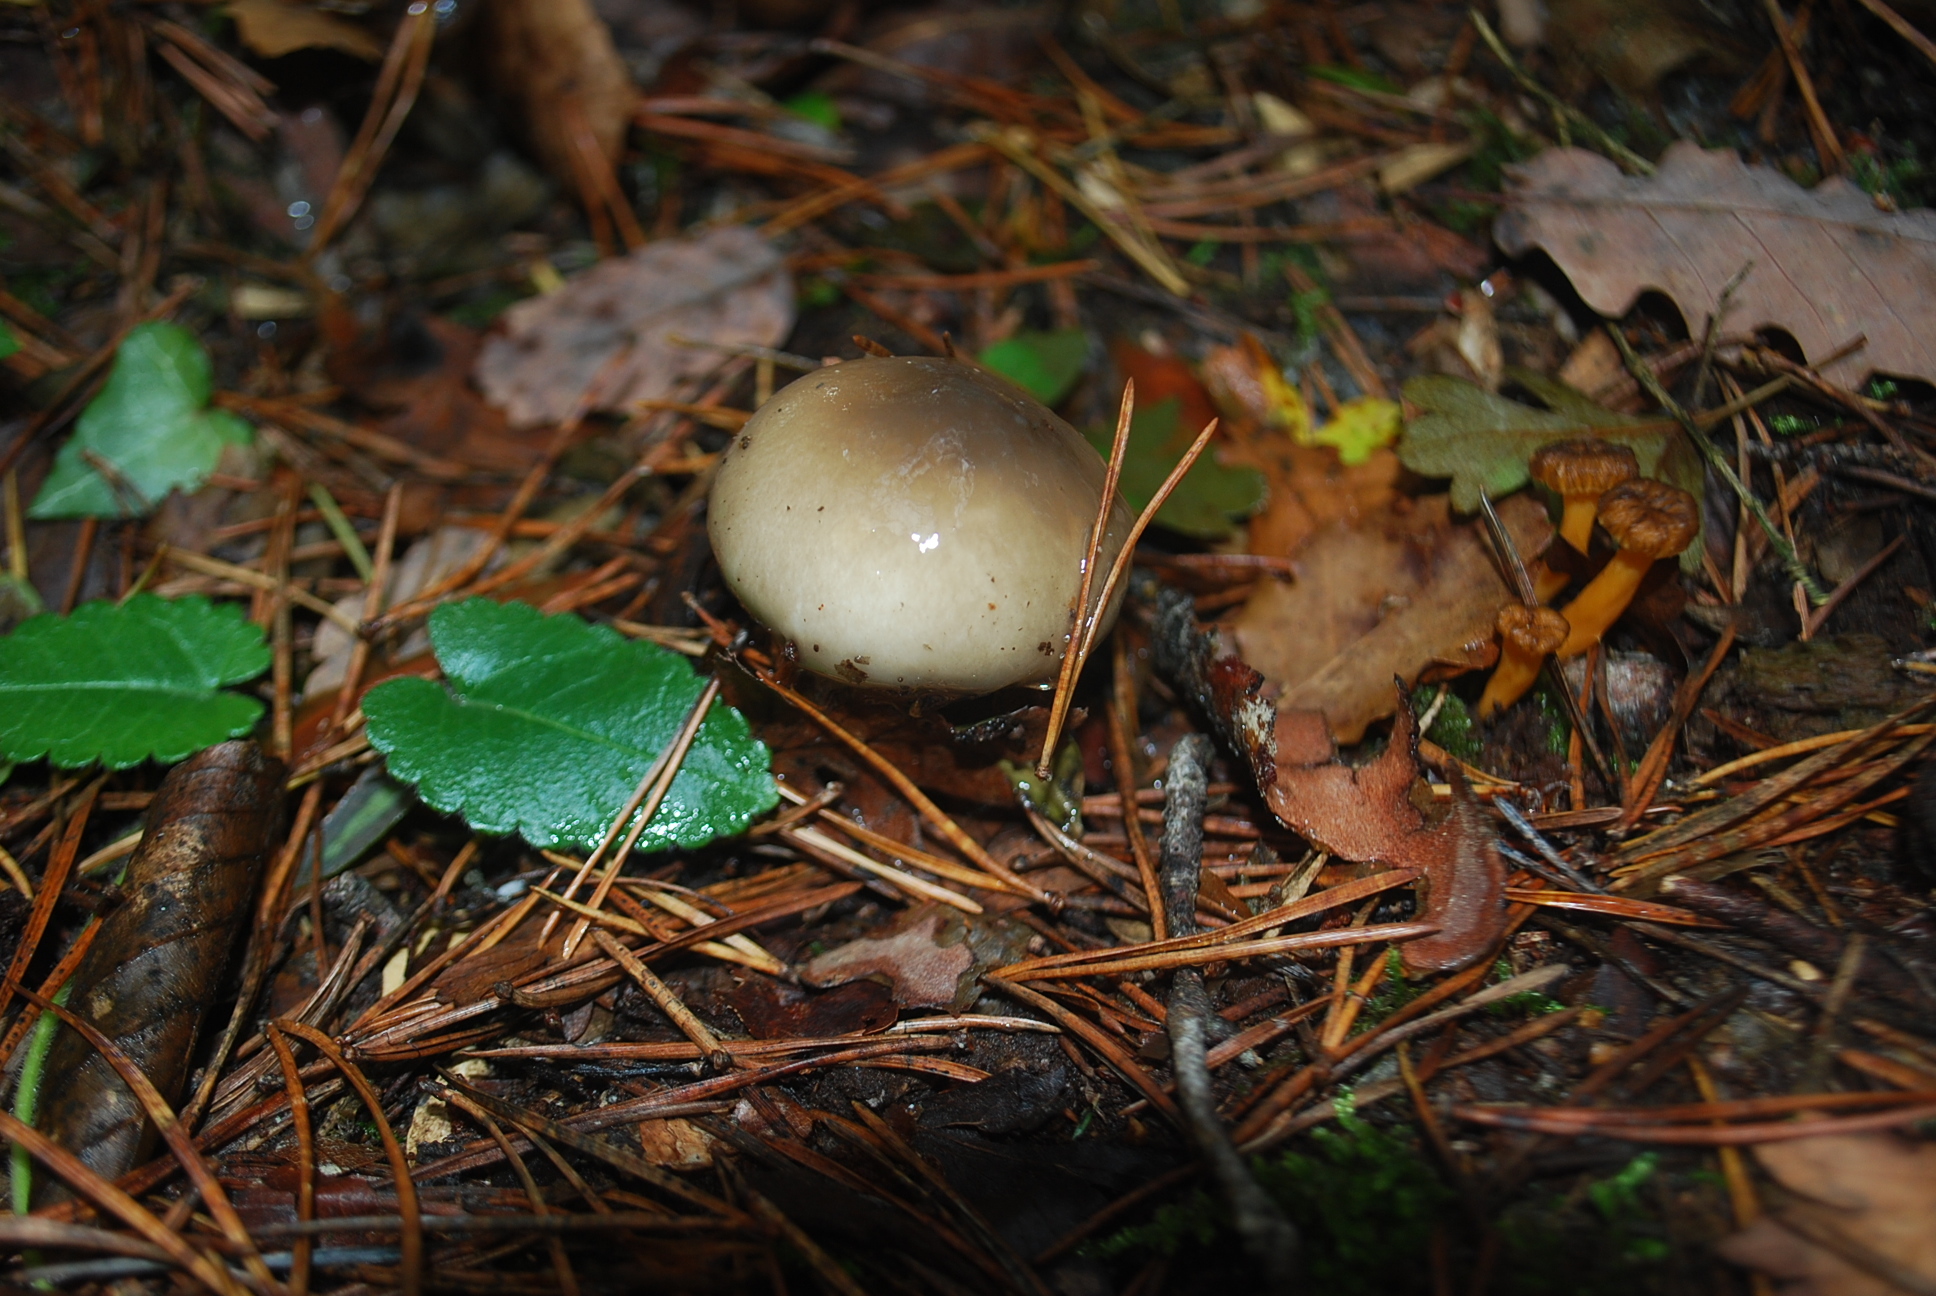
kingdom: Fungi
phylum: Basidiomycota
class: Agaricomycetes
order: Agaricales
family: Hygrophoraceae
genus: Hygrophorus
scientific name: Hygrophorus limacinus
